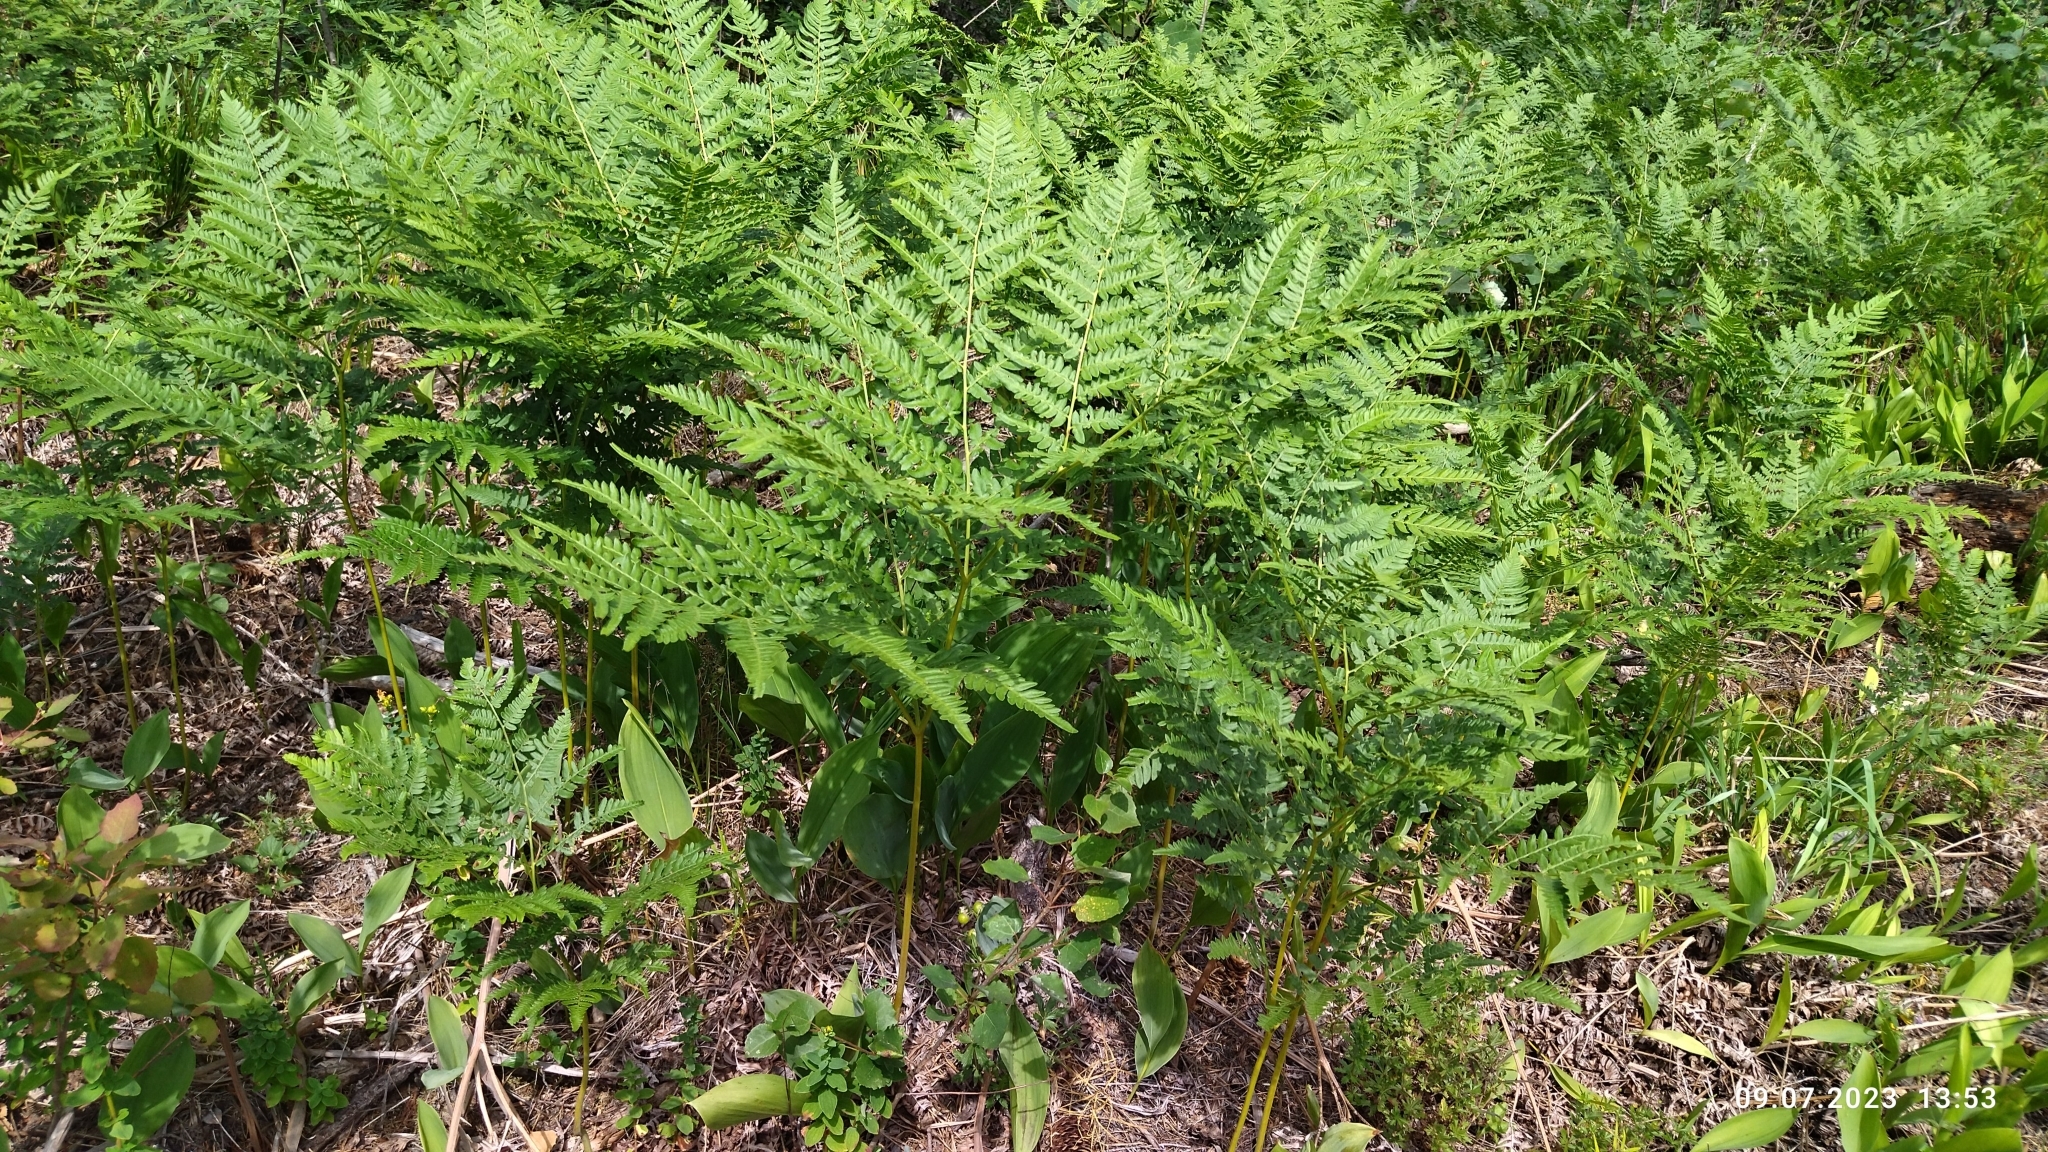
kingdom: Plantae
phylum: Tracheophyta
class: Polypodiopsida
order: Polypodiales
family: Dennstaedtiaceae
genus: Pteridium
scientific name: Pteridium aquilinum
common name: Bracken
